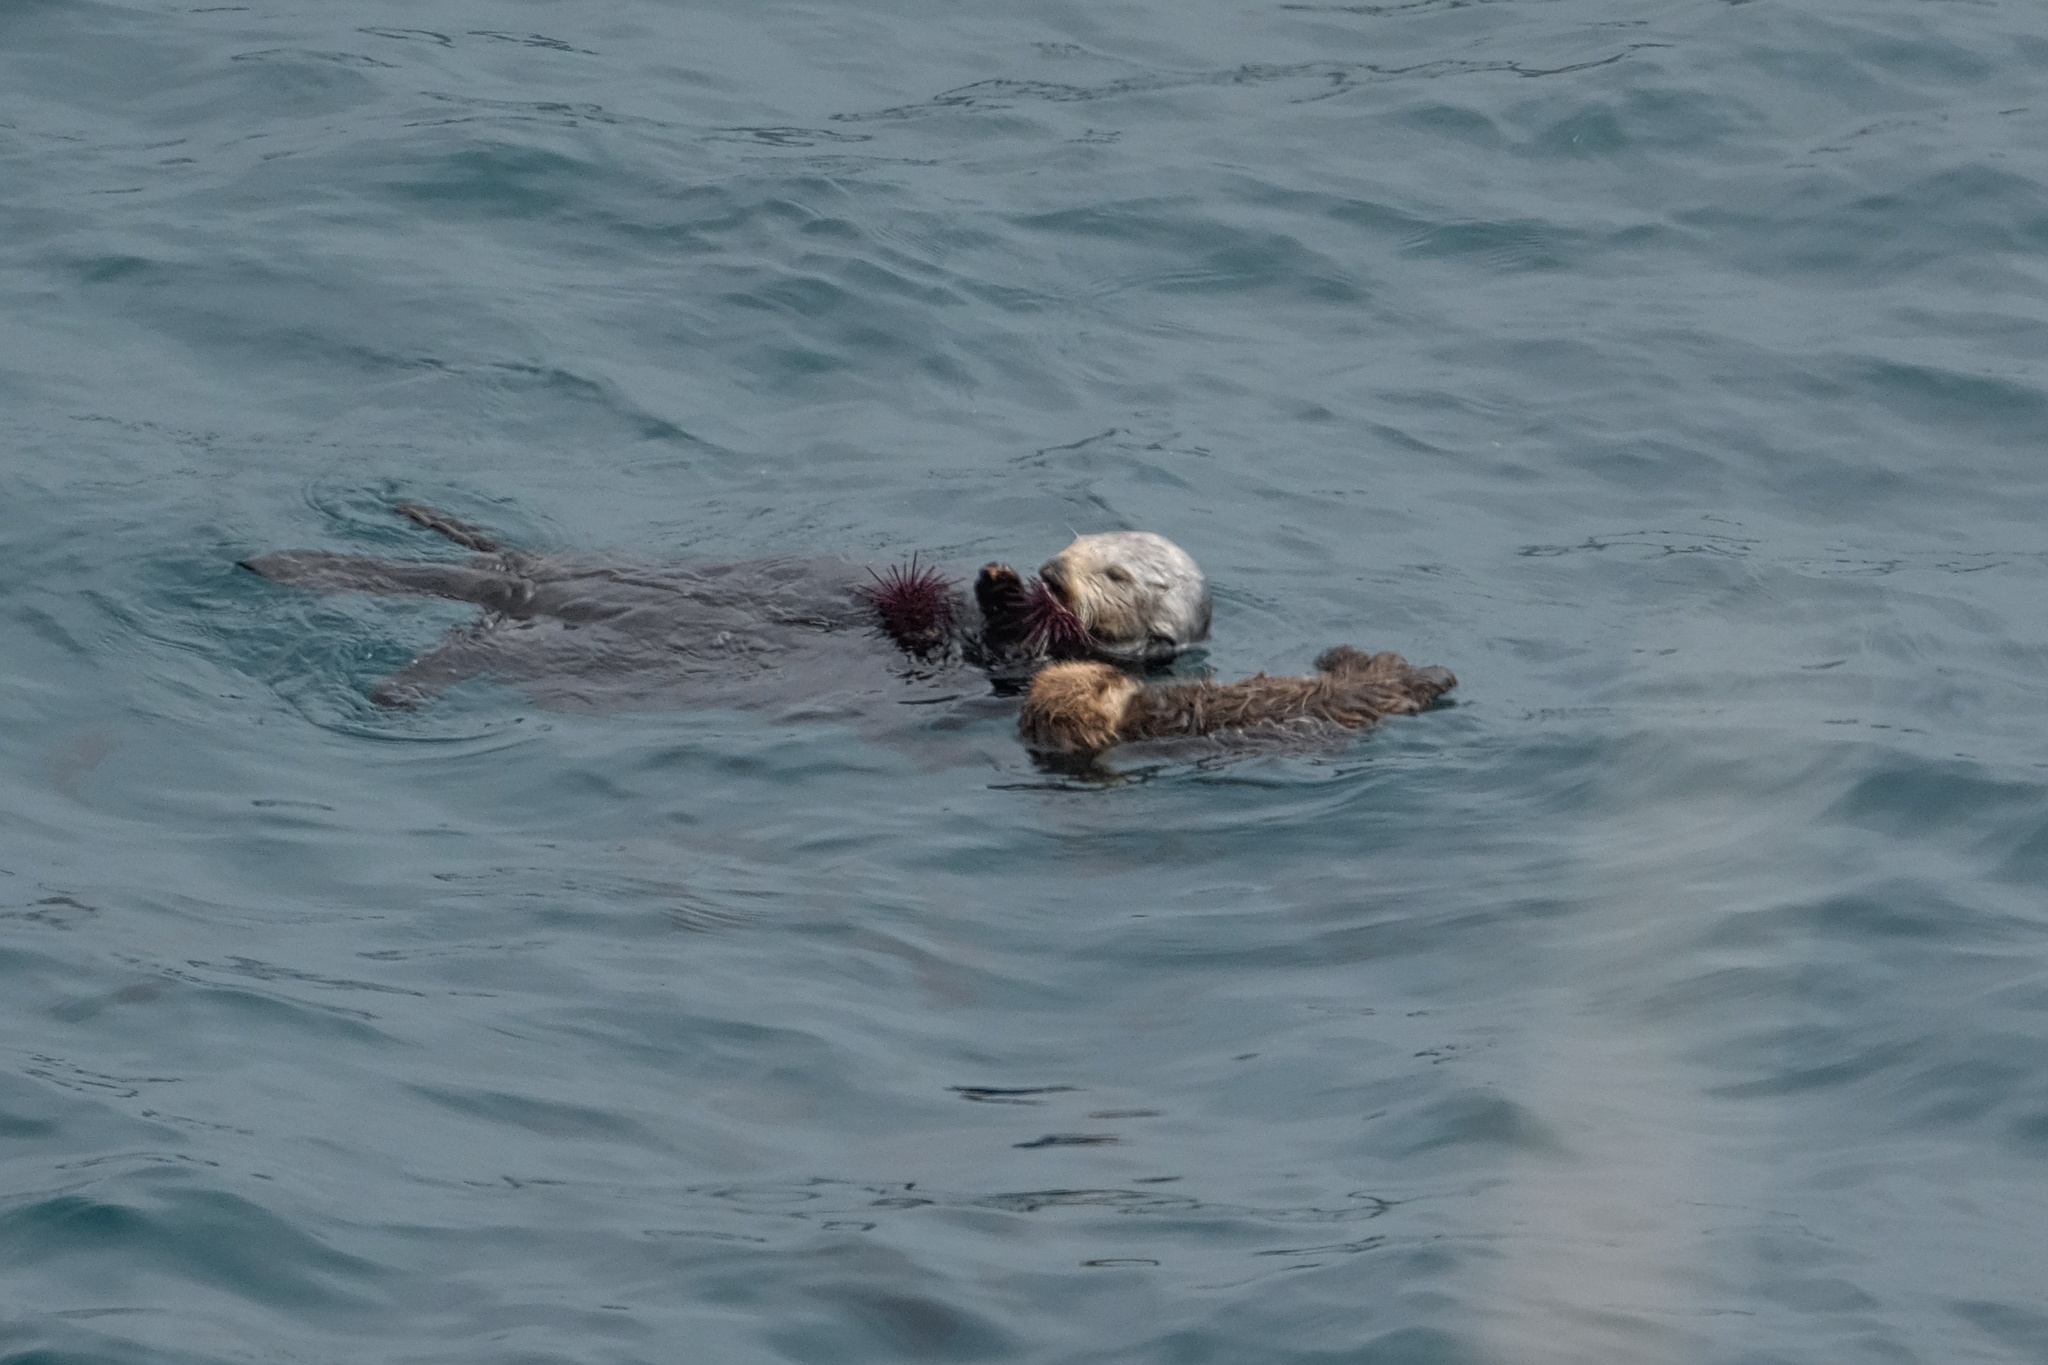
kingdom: Animalia
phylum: Chordata
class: Mammalia
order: Carnivora
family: Mustelidae
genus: Enhydra
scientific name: Enhydra lutris
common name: Sea otter
